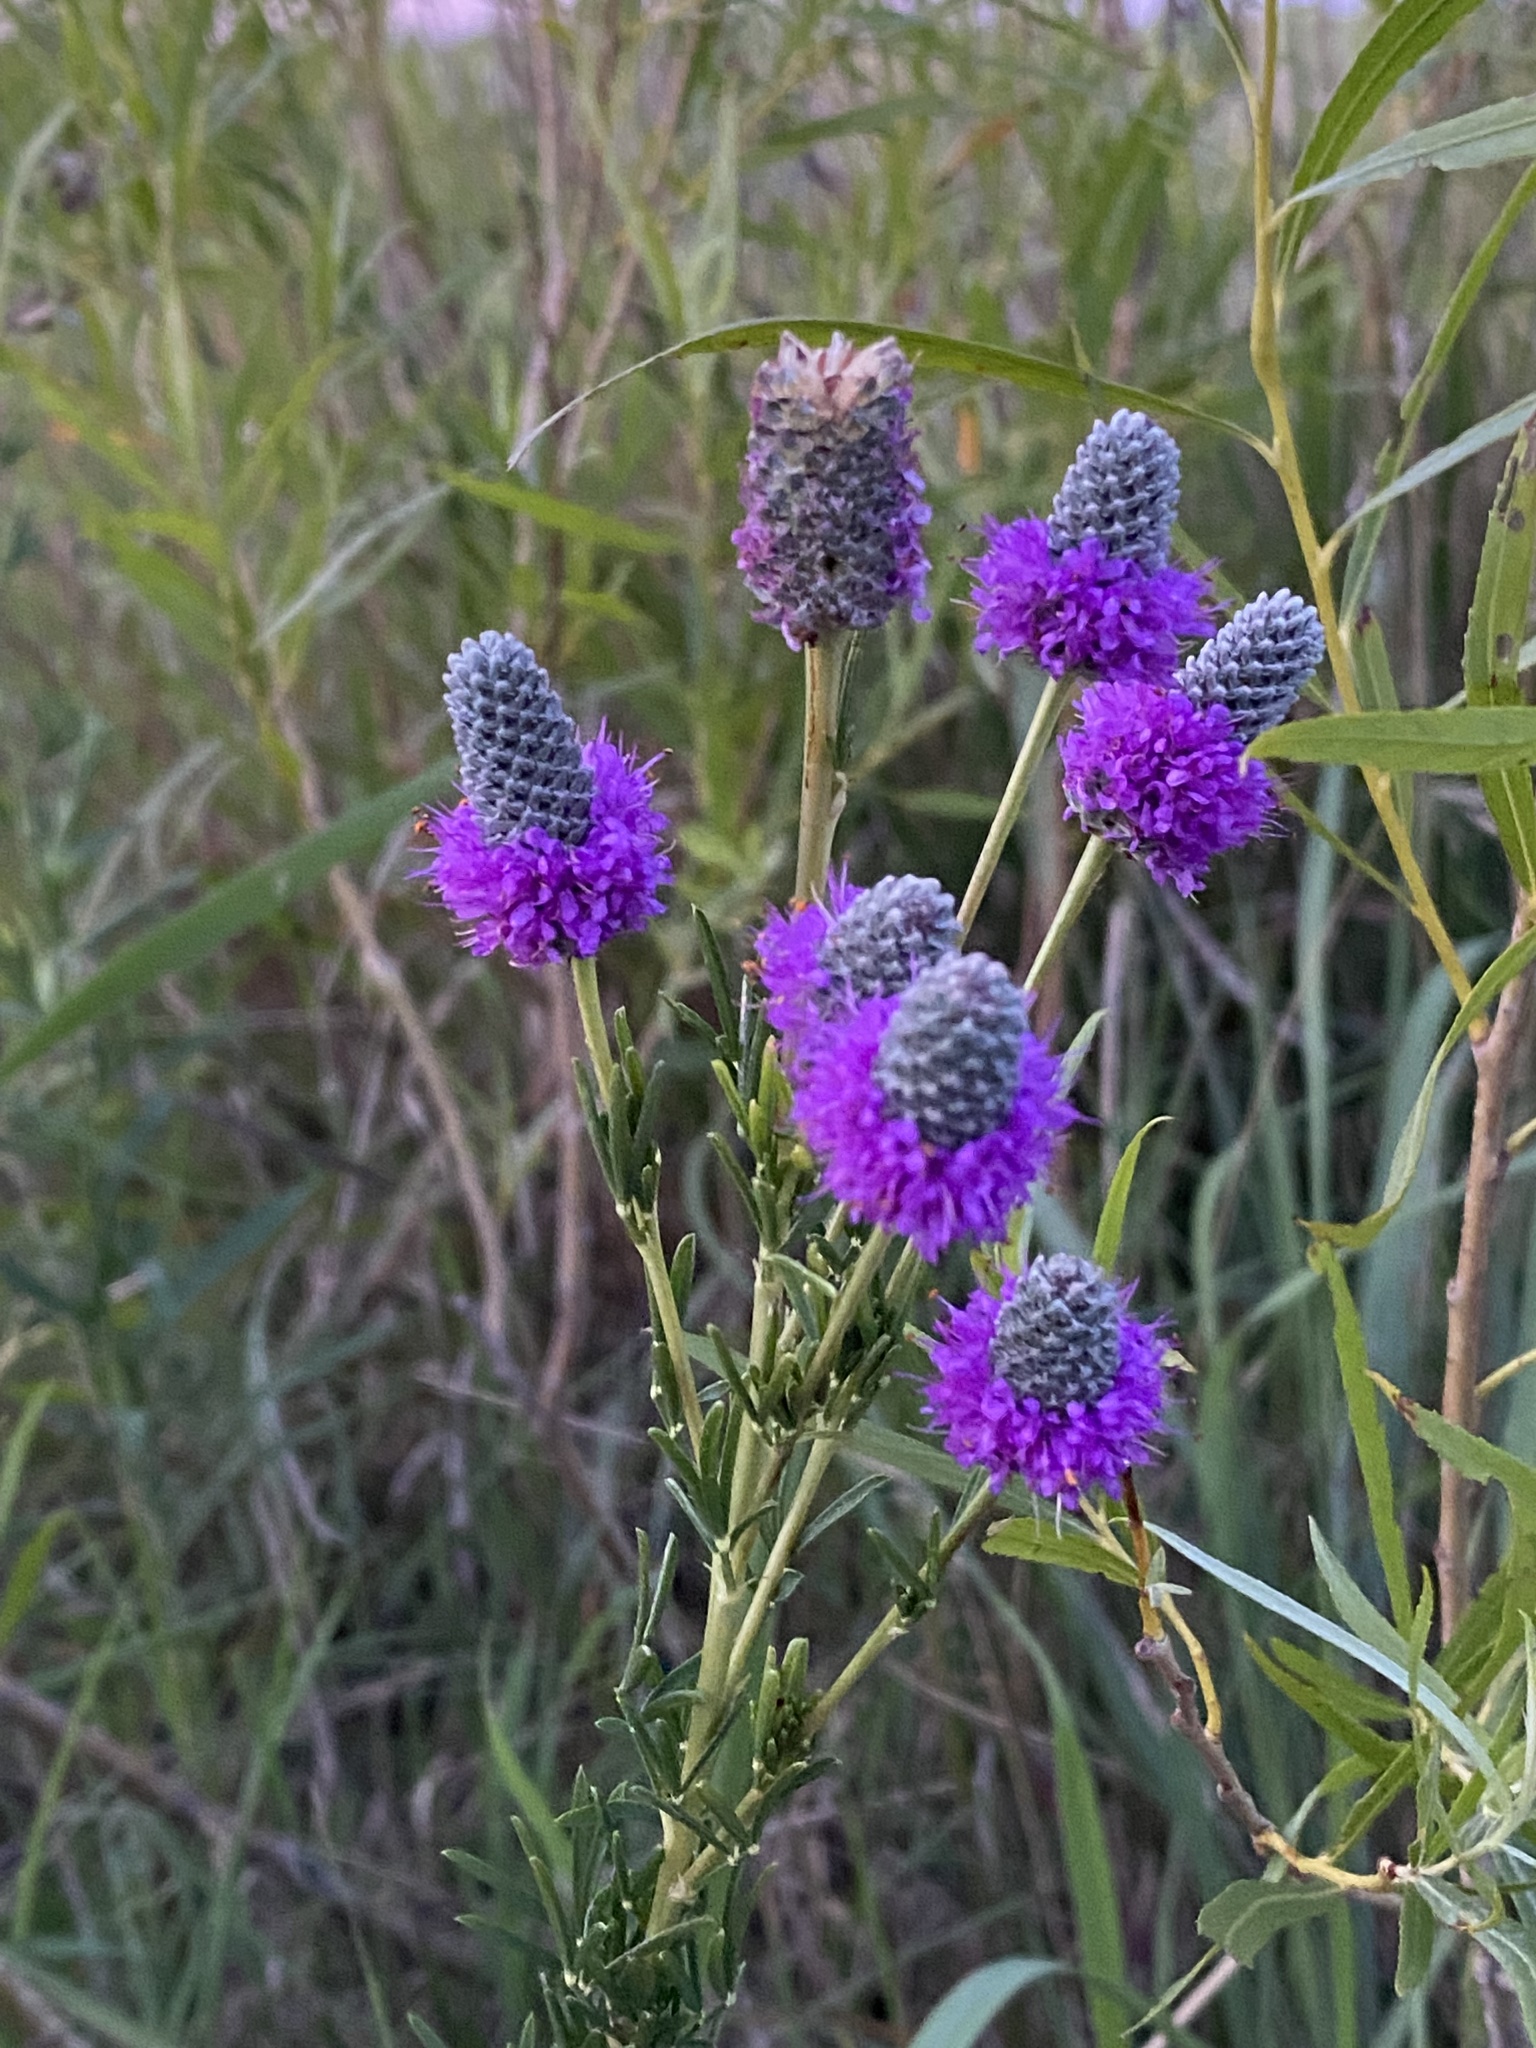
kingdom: Plantae
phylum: Tracheophyta
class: Magnoliopsida
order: Fabales
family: Fabaceae
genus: Dalea
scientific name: Dalea purpurea
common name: Purple prairie-clover
